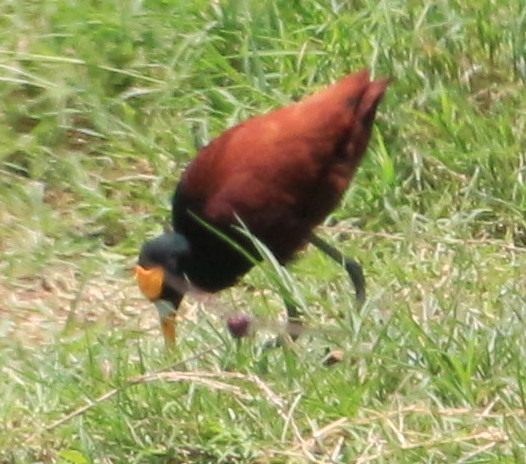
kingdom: Animalia
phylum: Chordata
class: Aves
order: Charadriiformes
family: Jacanidae
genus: Jacana
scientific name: Jacana spinosa
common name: Northern jacana
